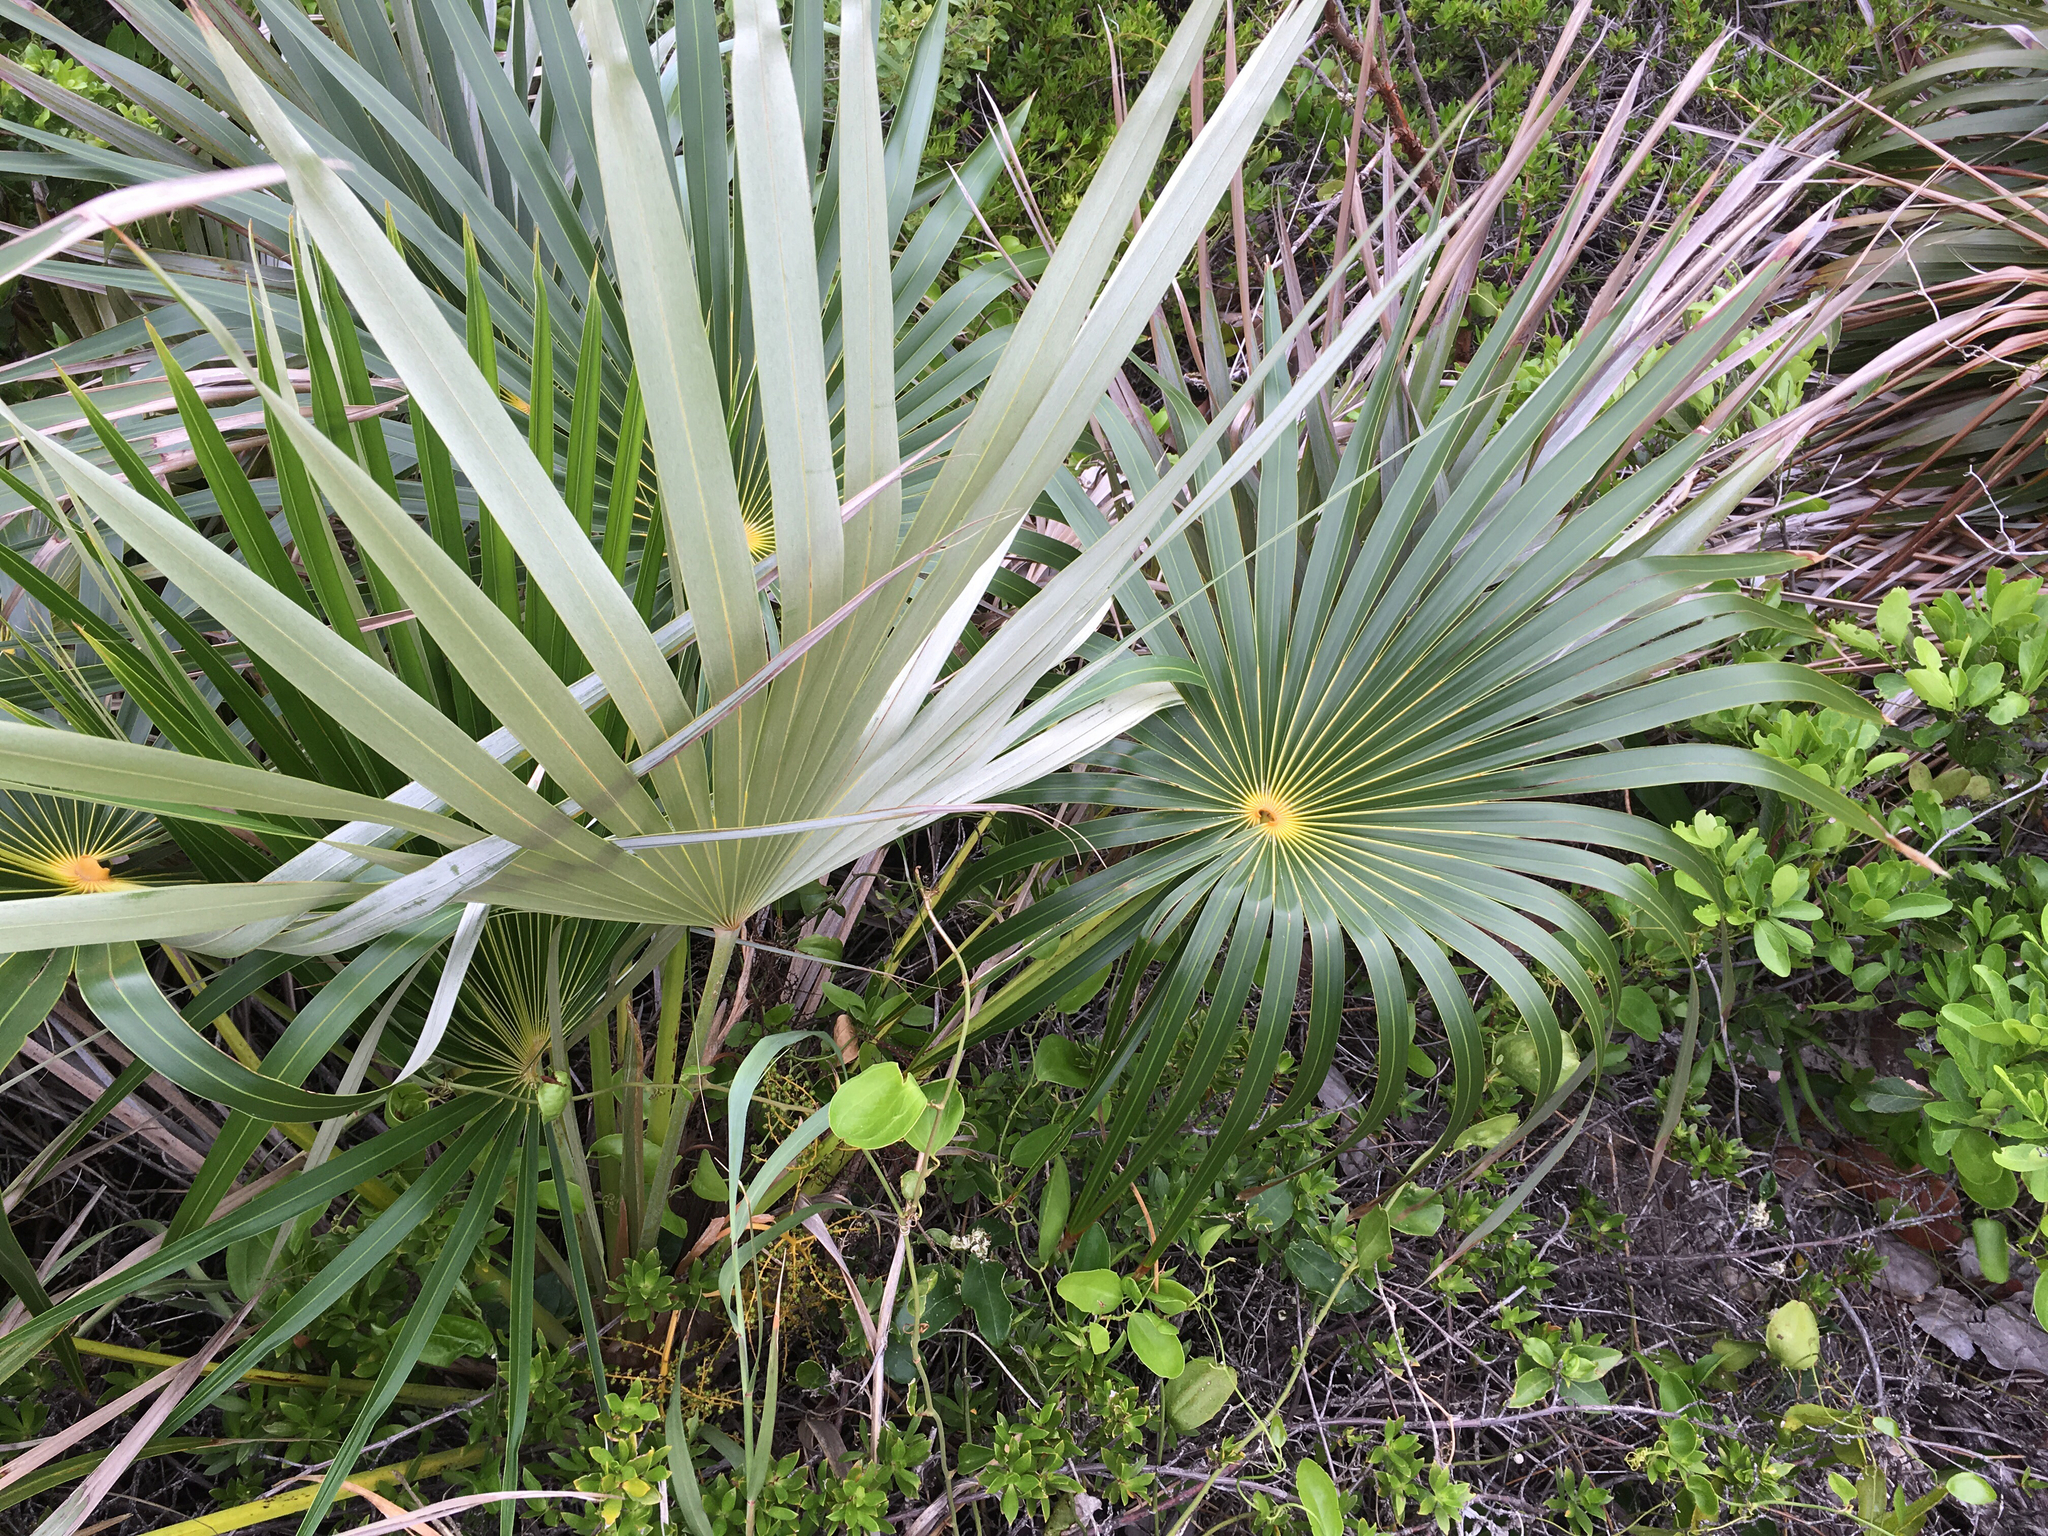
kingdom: Plantae
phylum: Tracheophyta
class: Liliopsida
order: Arecales
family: Arecaceae
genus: Coccothrinax
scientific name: Coccothrinax argentata
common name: Florida silver palm
